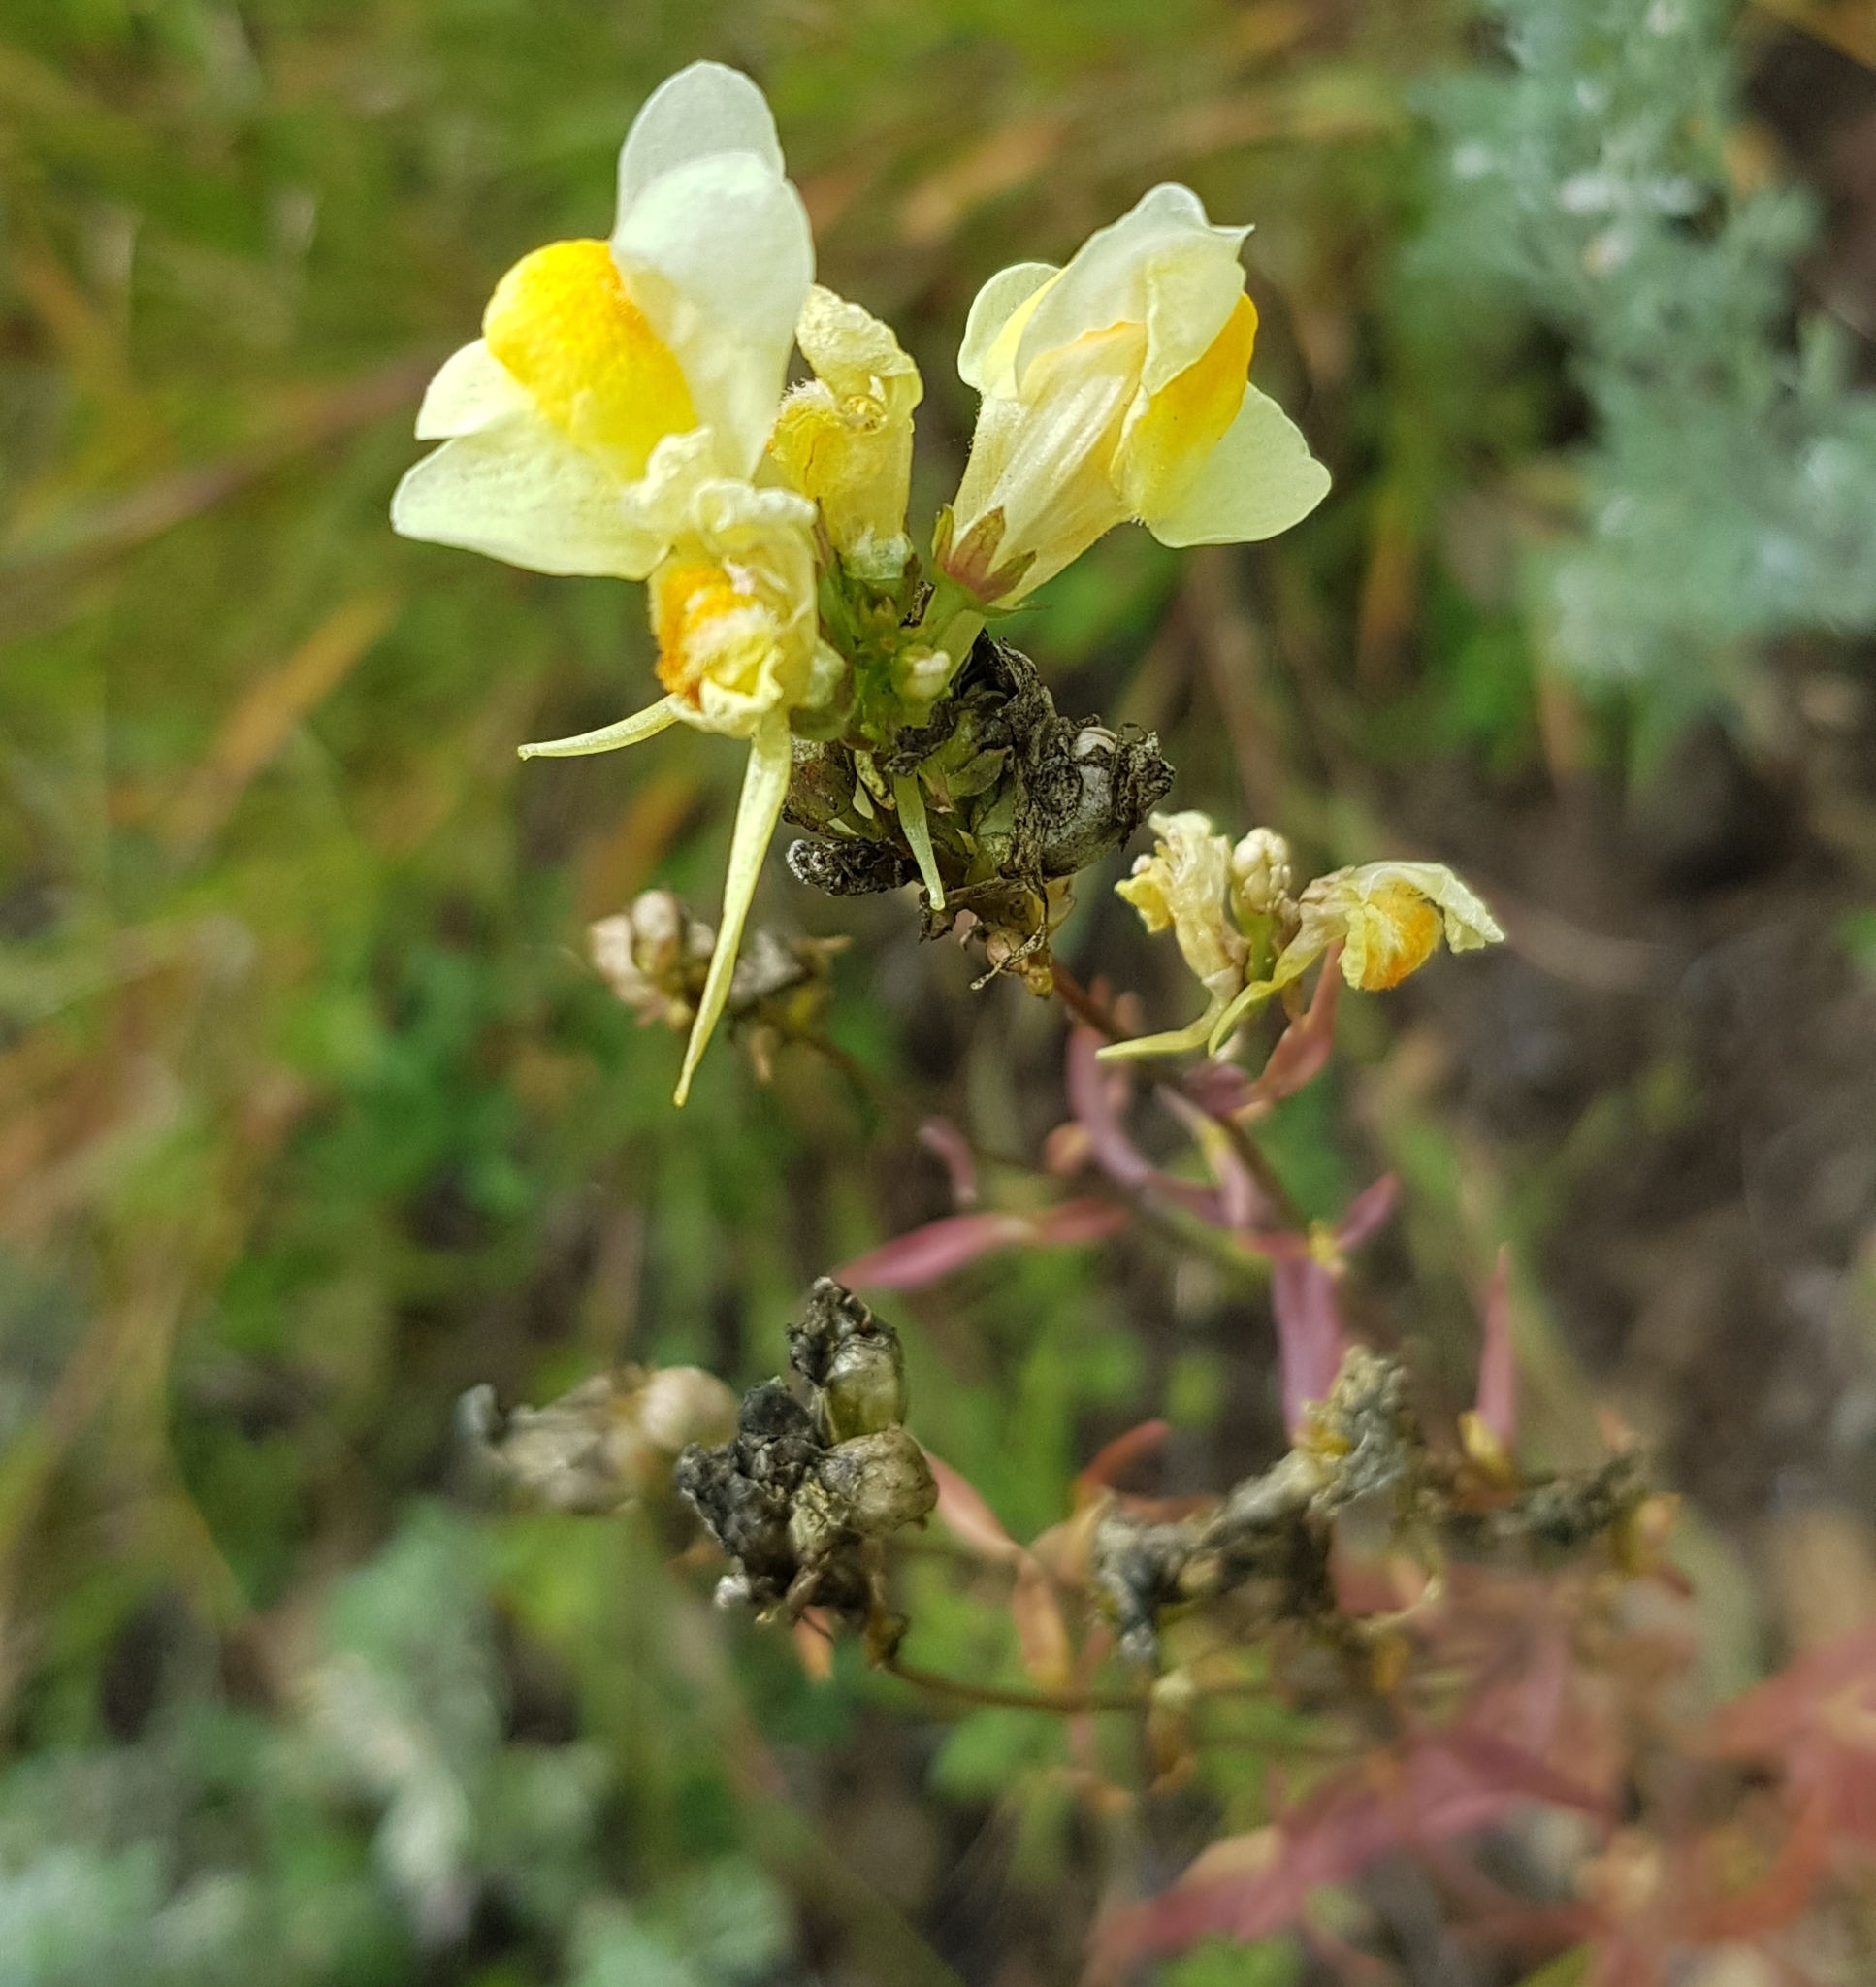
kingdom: Plantae
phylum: Tracheophyta
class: Magnoliopsida
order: Lamiales
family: Plantaginaceae
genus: Linaria
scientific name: Linaria buriatica
